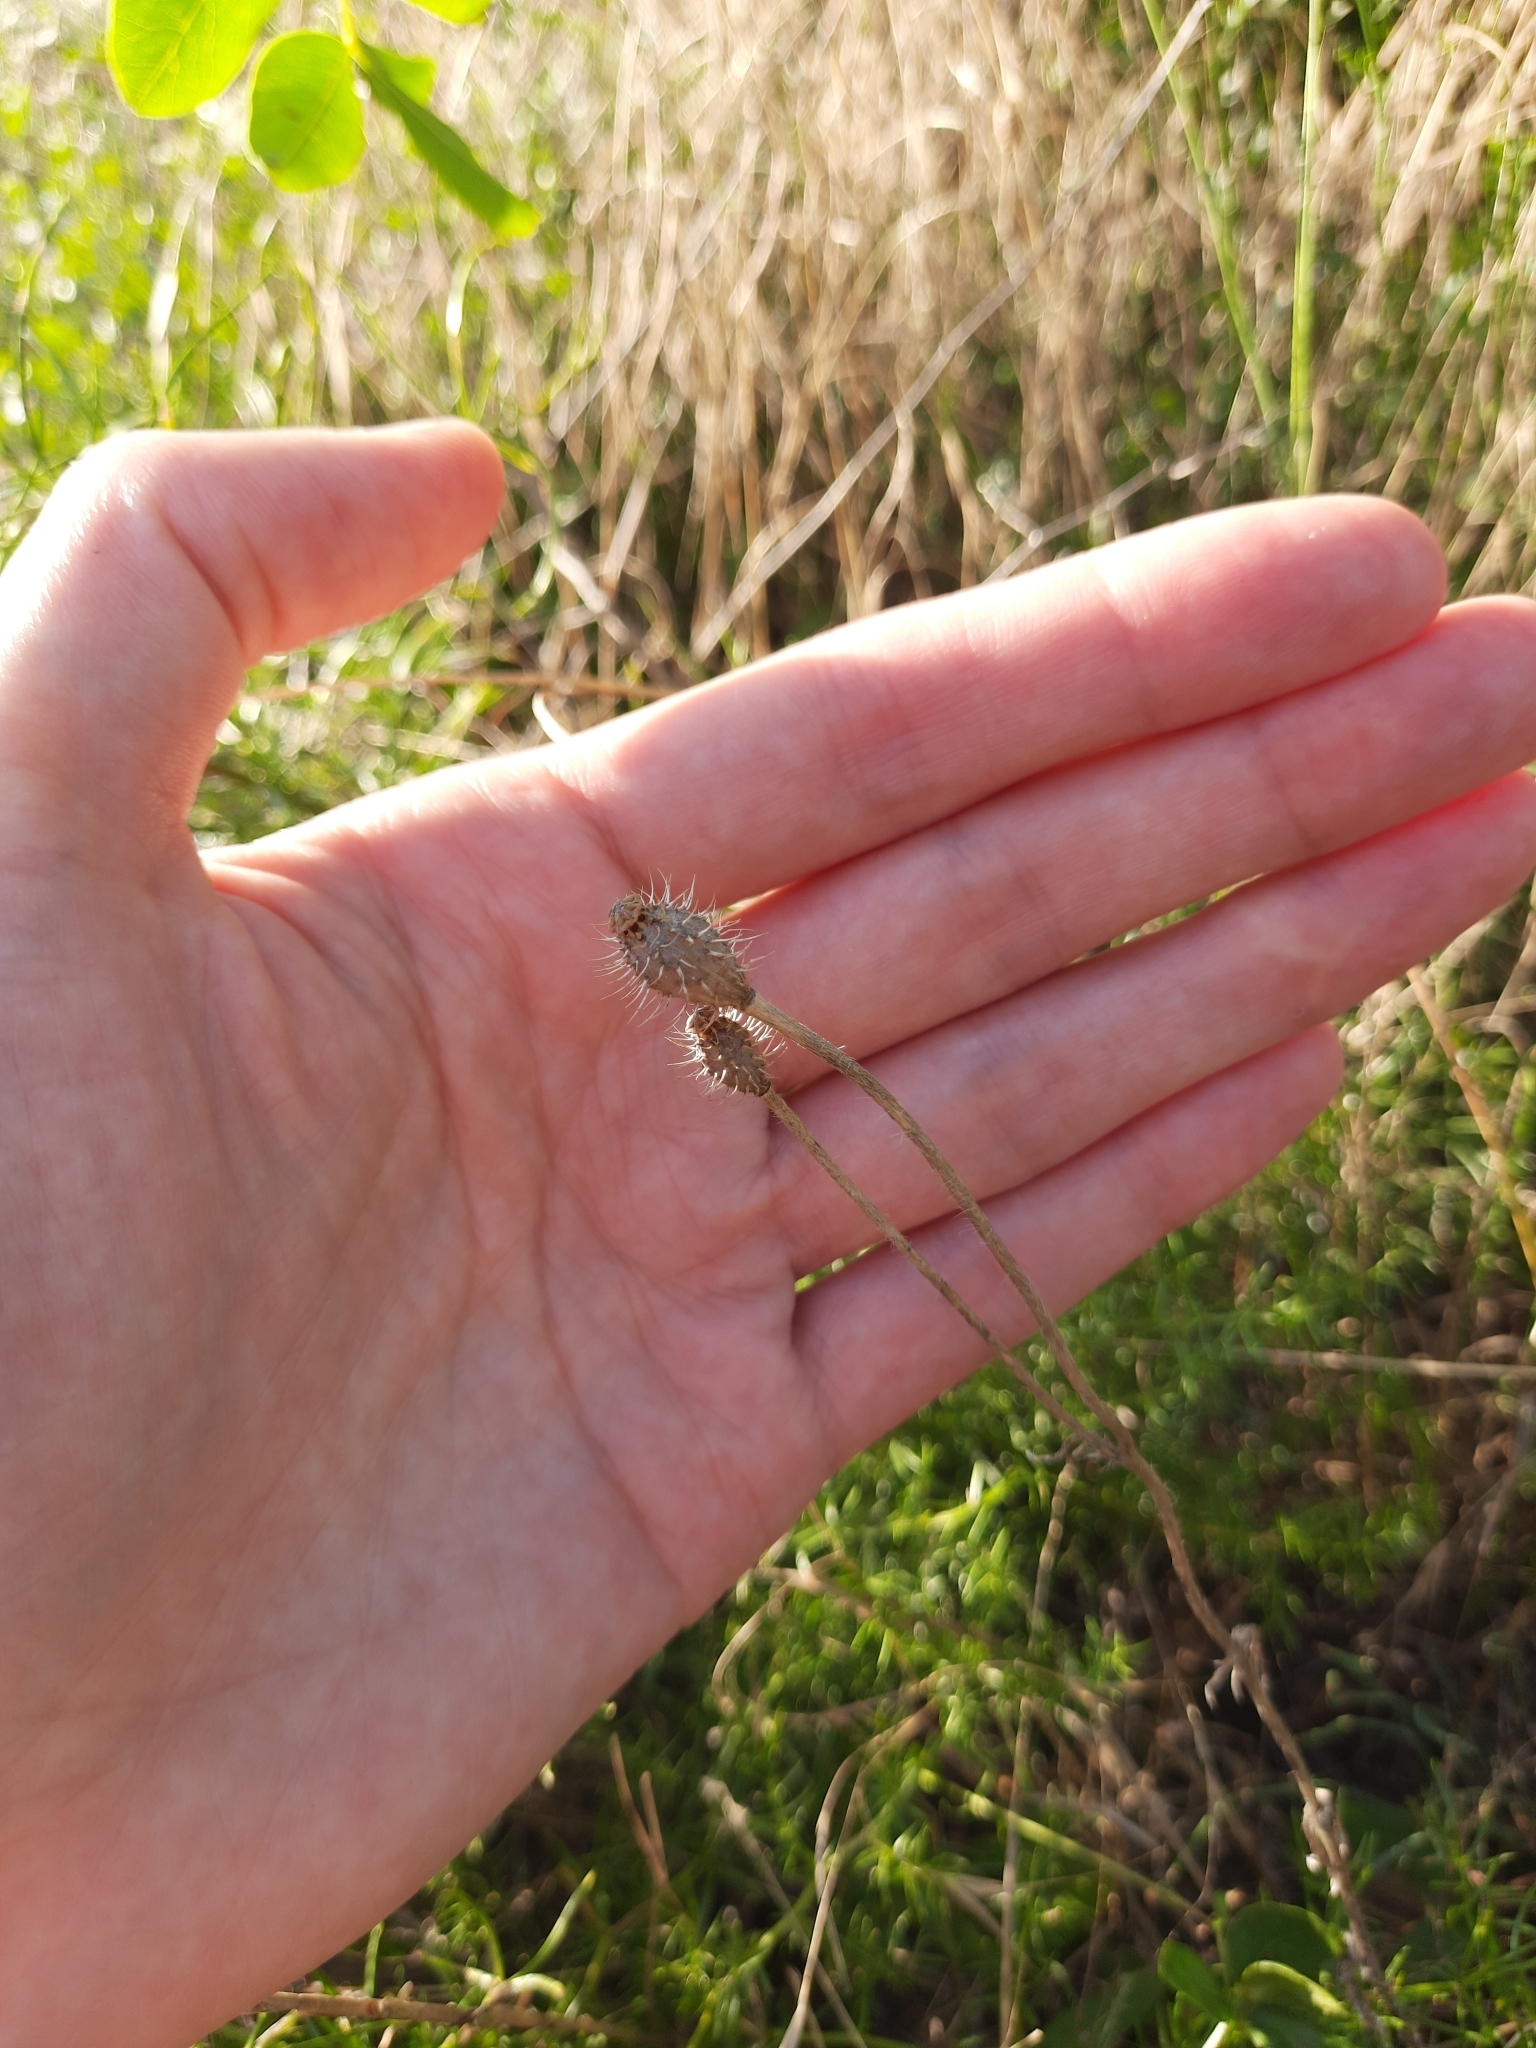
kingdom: Plantae
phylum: Tracheophyta
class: Magnoliopsida
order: Ranunculales
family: Papaveraceae
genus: Roemeria
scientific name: Roemeria hispida
